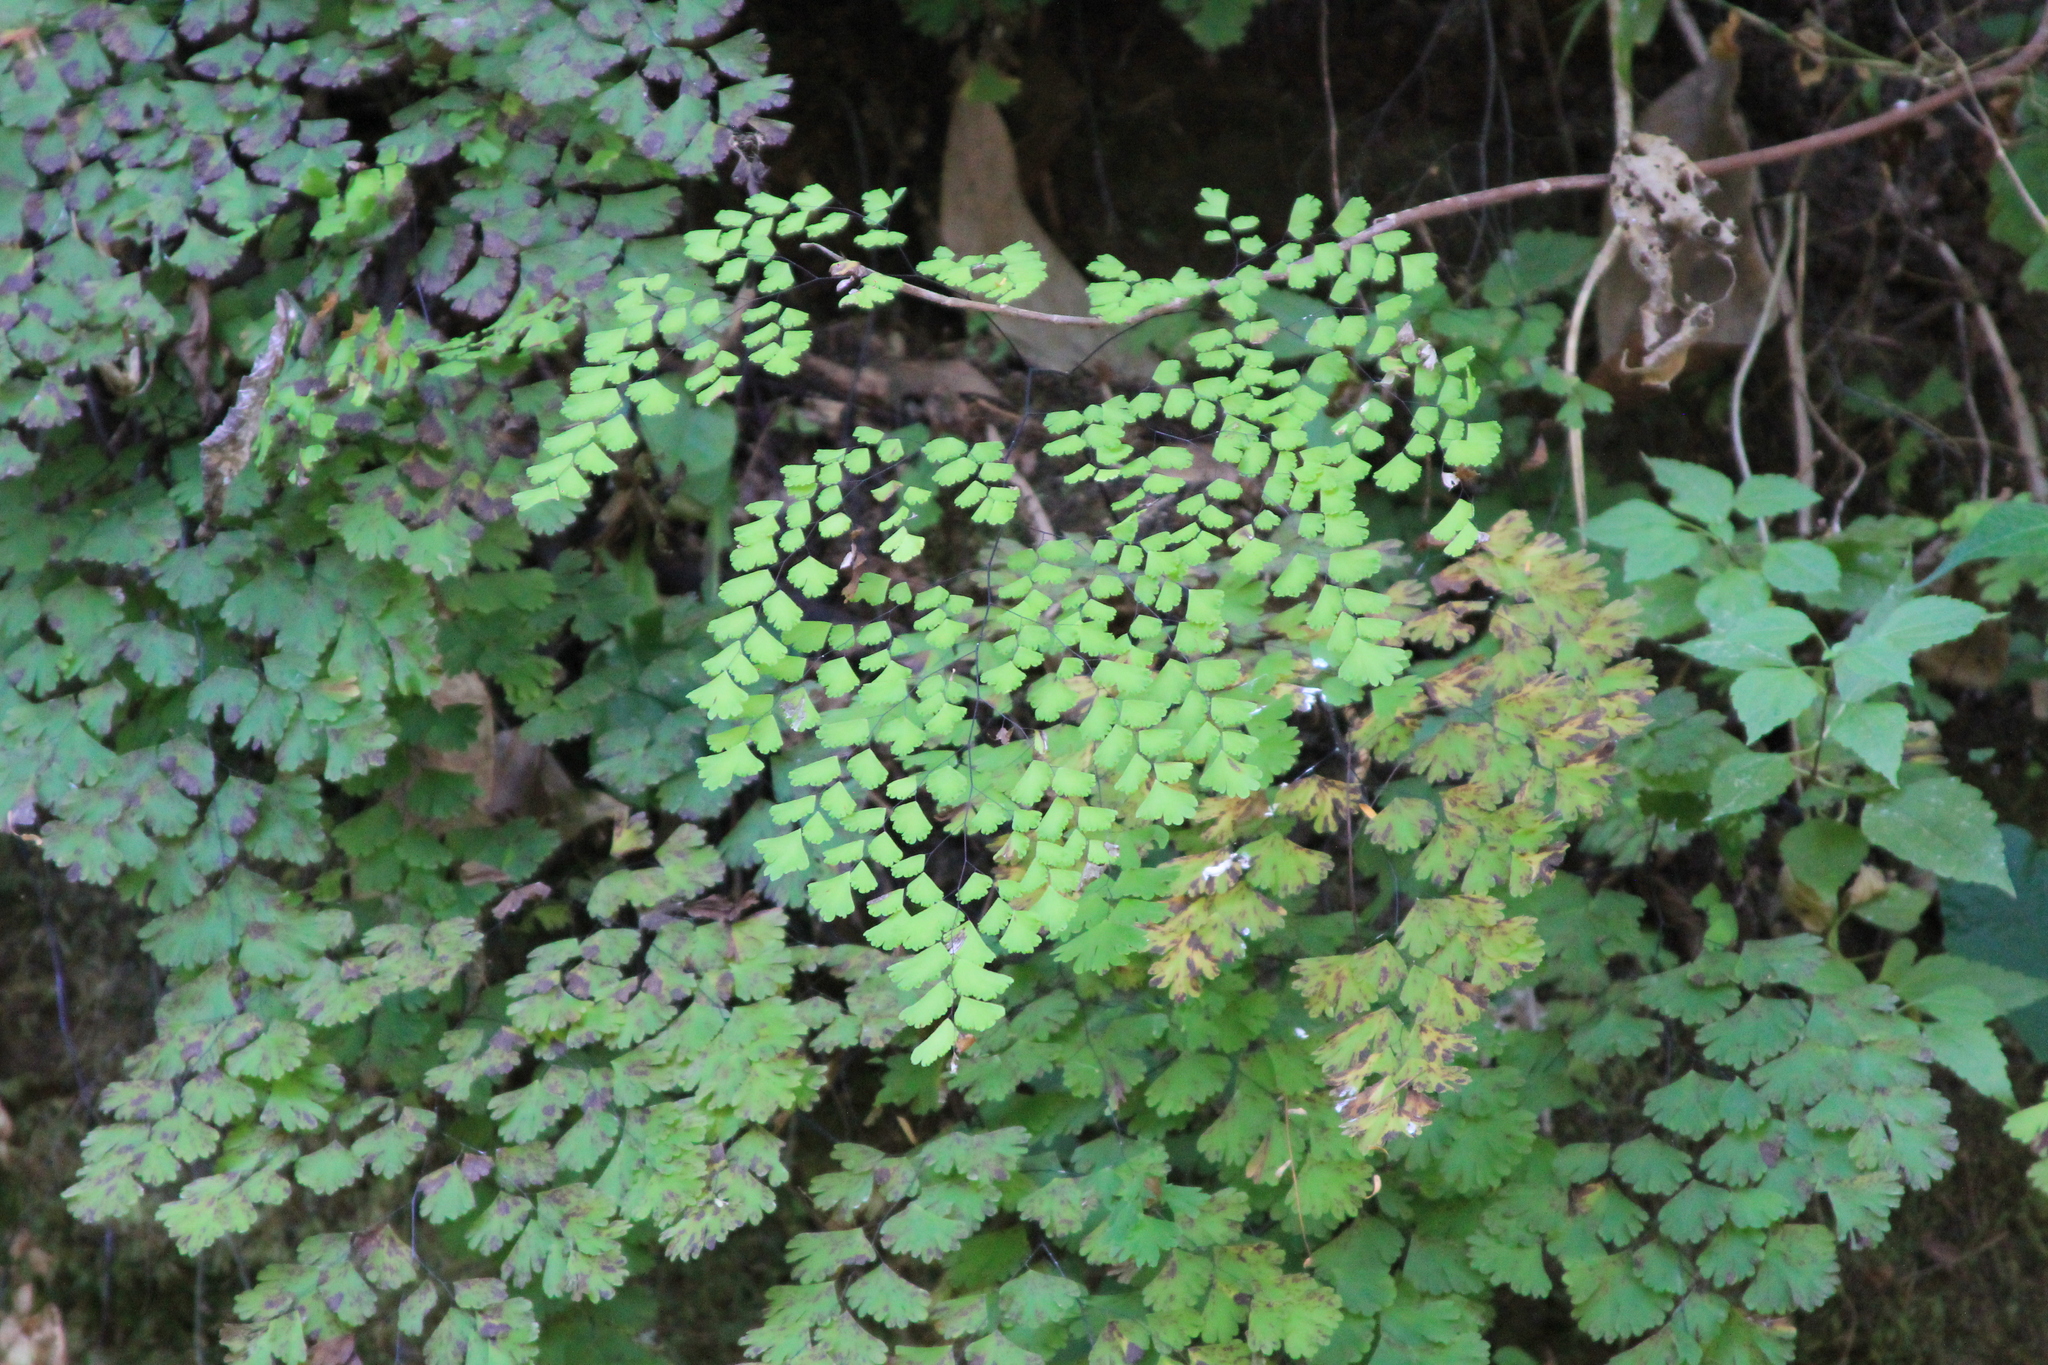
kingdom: Plantae
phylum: Tracheophyta
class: Polypodiopsida
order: Polypodiales
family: Pteridaceae
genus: Adiantum
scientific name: Adiantum lorentzii
